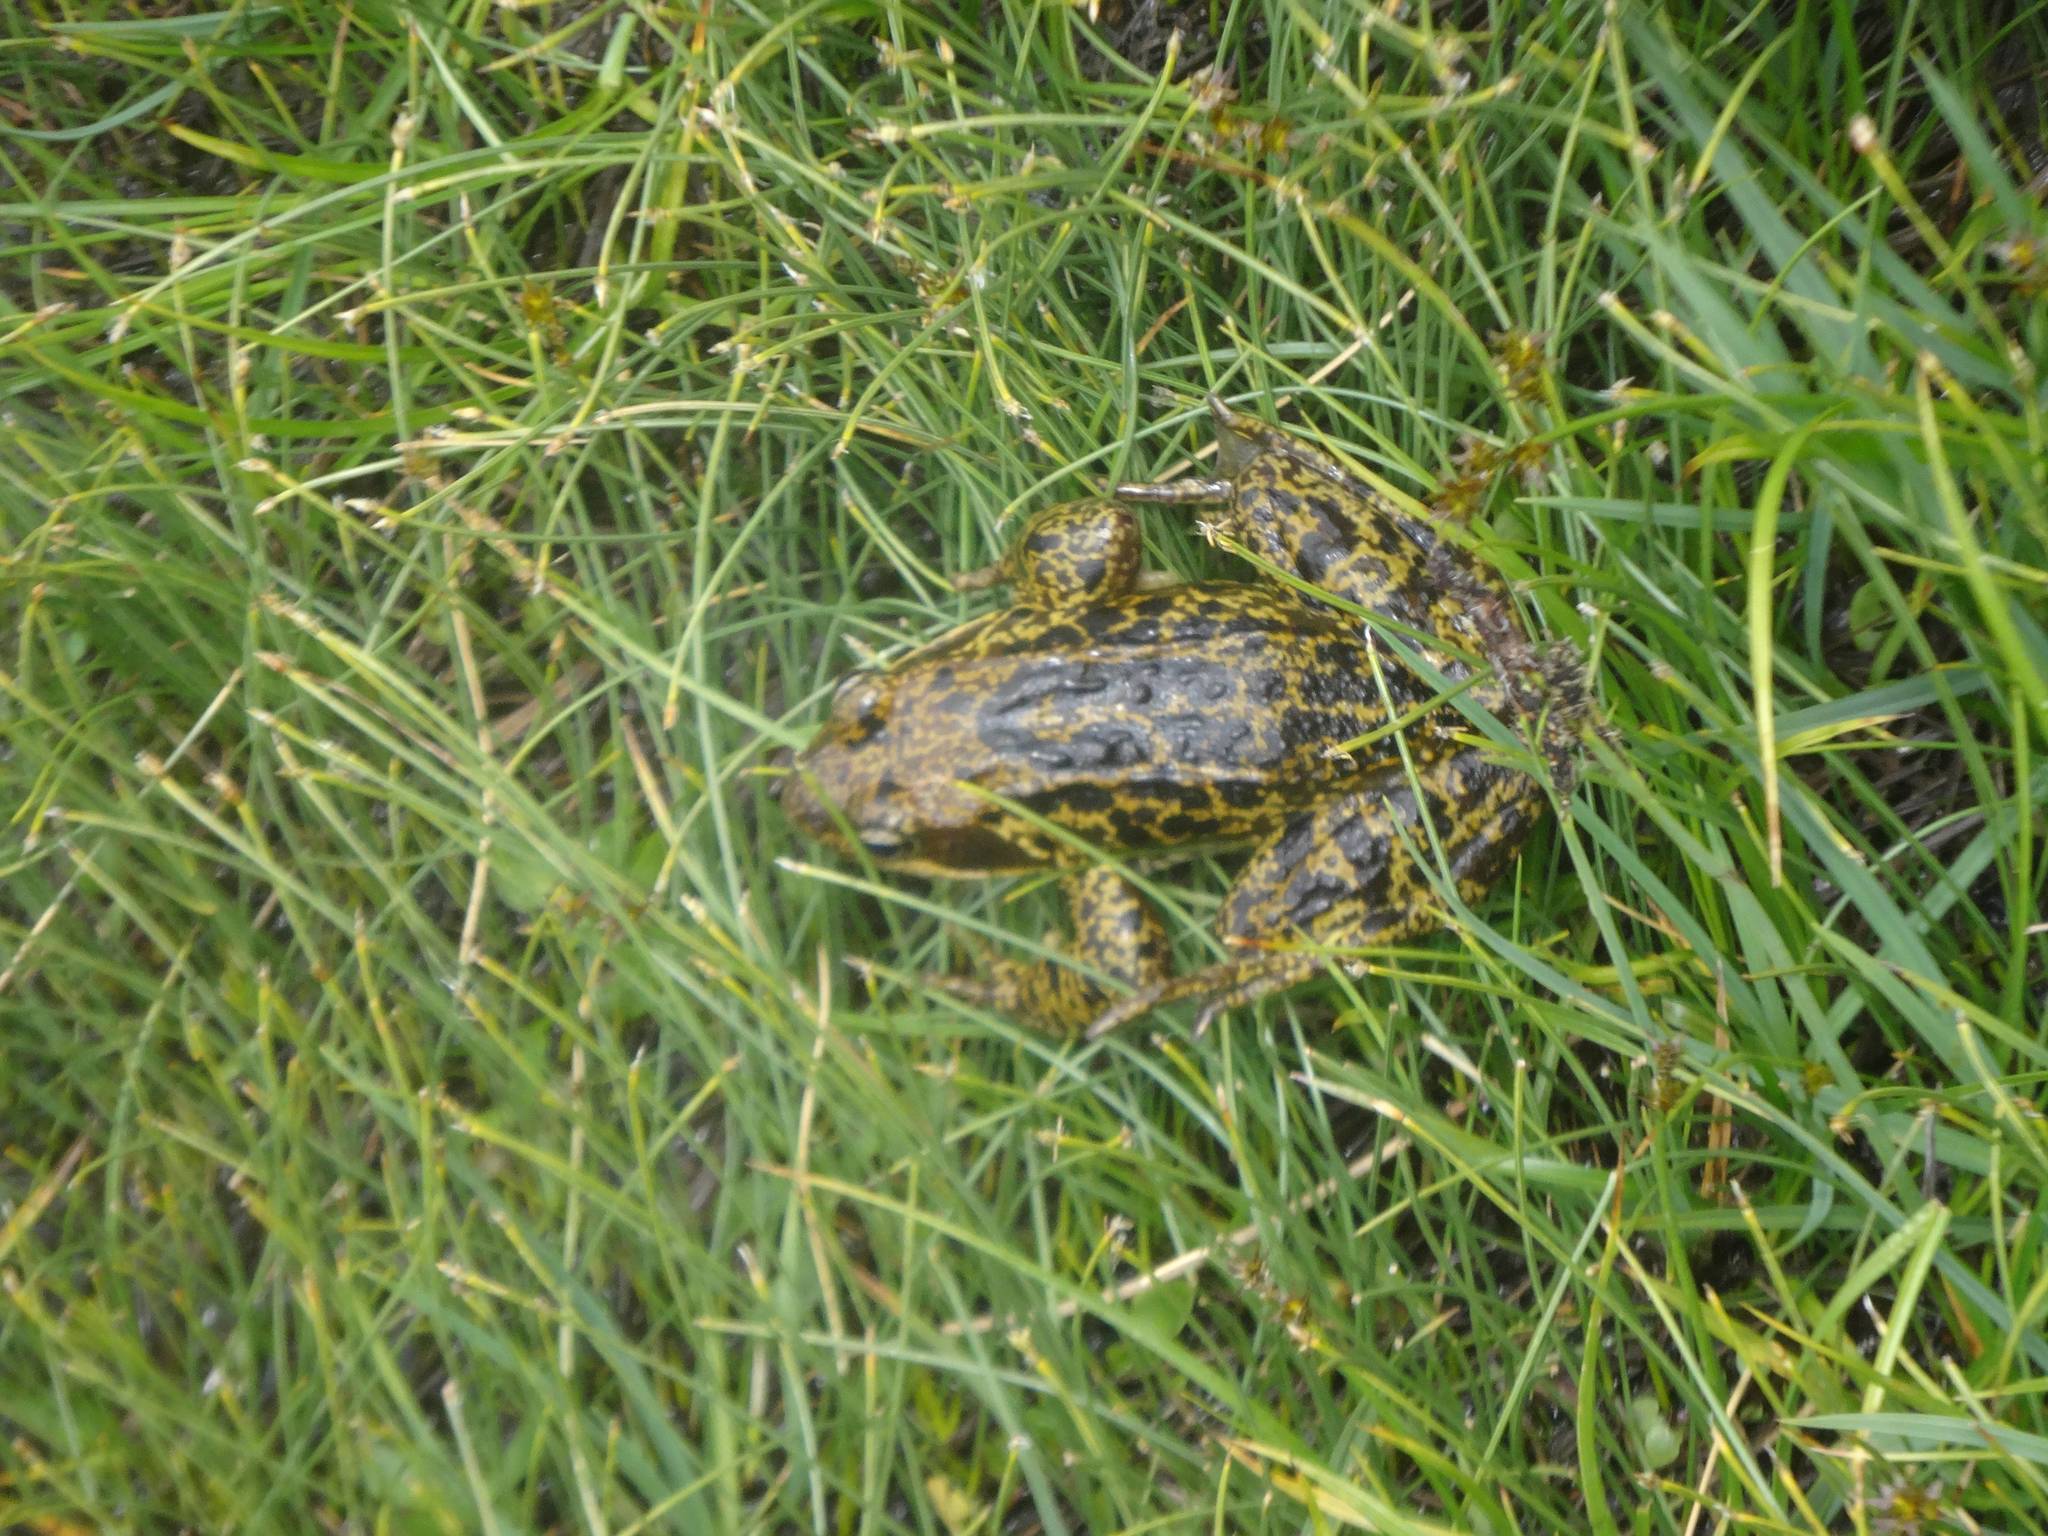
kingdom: Animalia
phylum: Chordata
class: Amphibia
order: Anura
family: Ranidae
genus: Rana
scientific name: Rana temporaria
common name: Common frog
